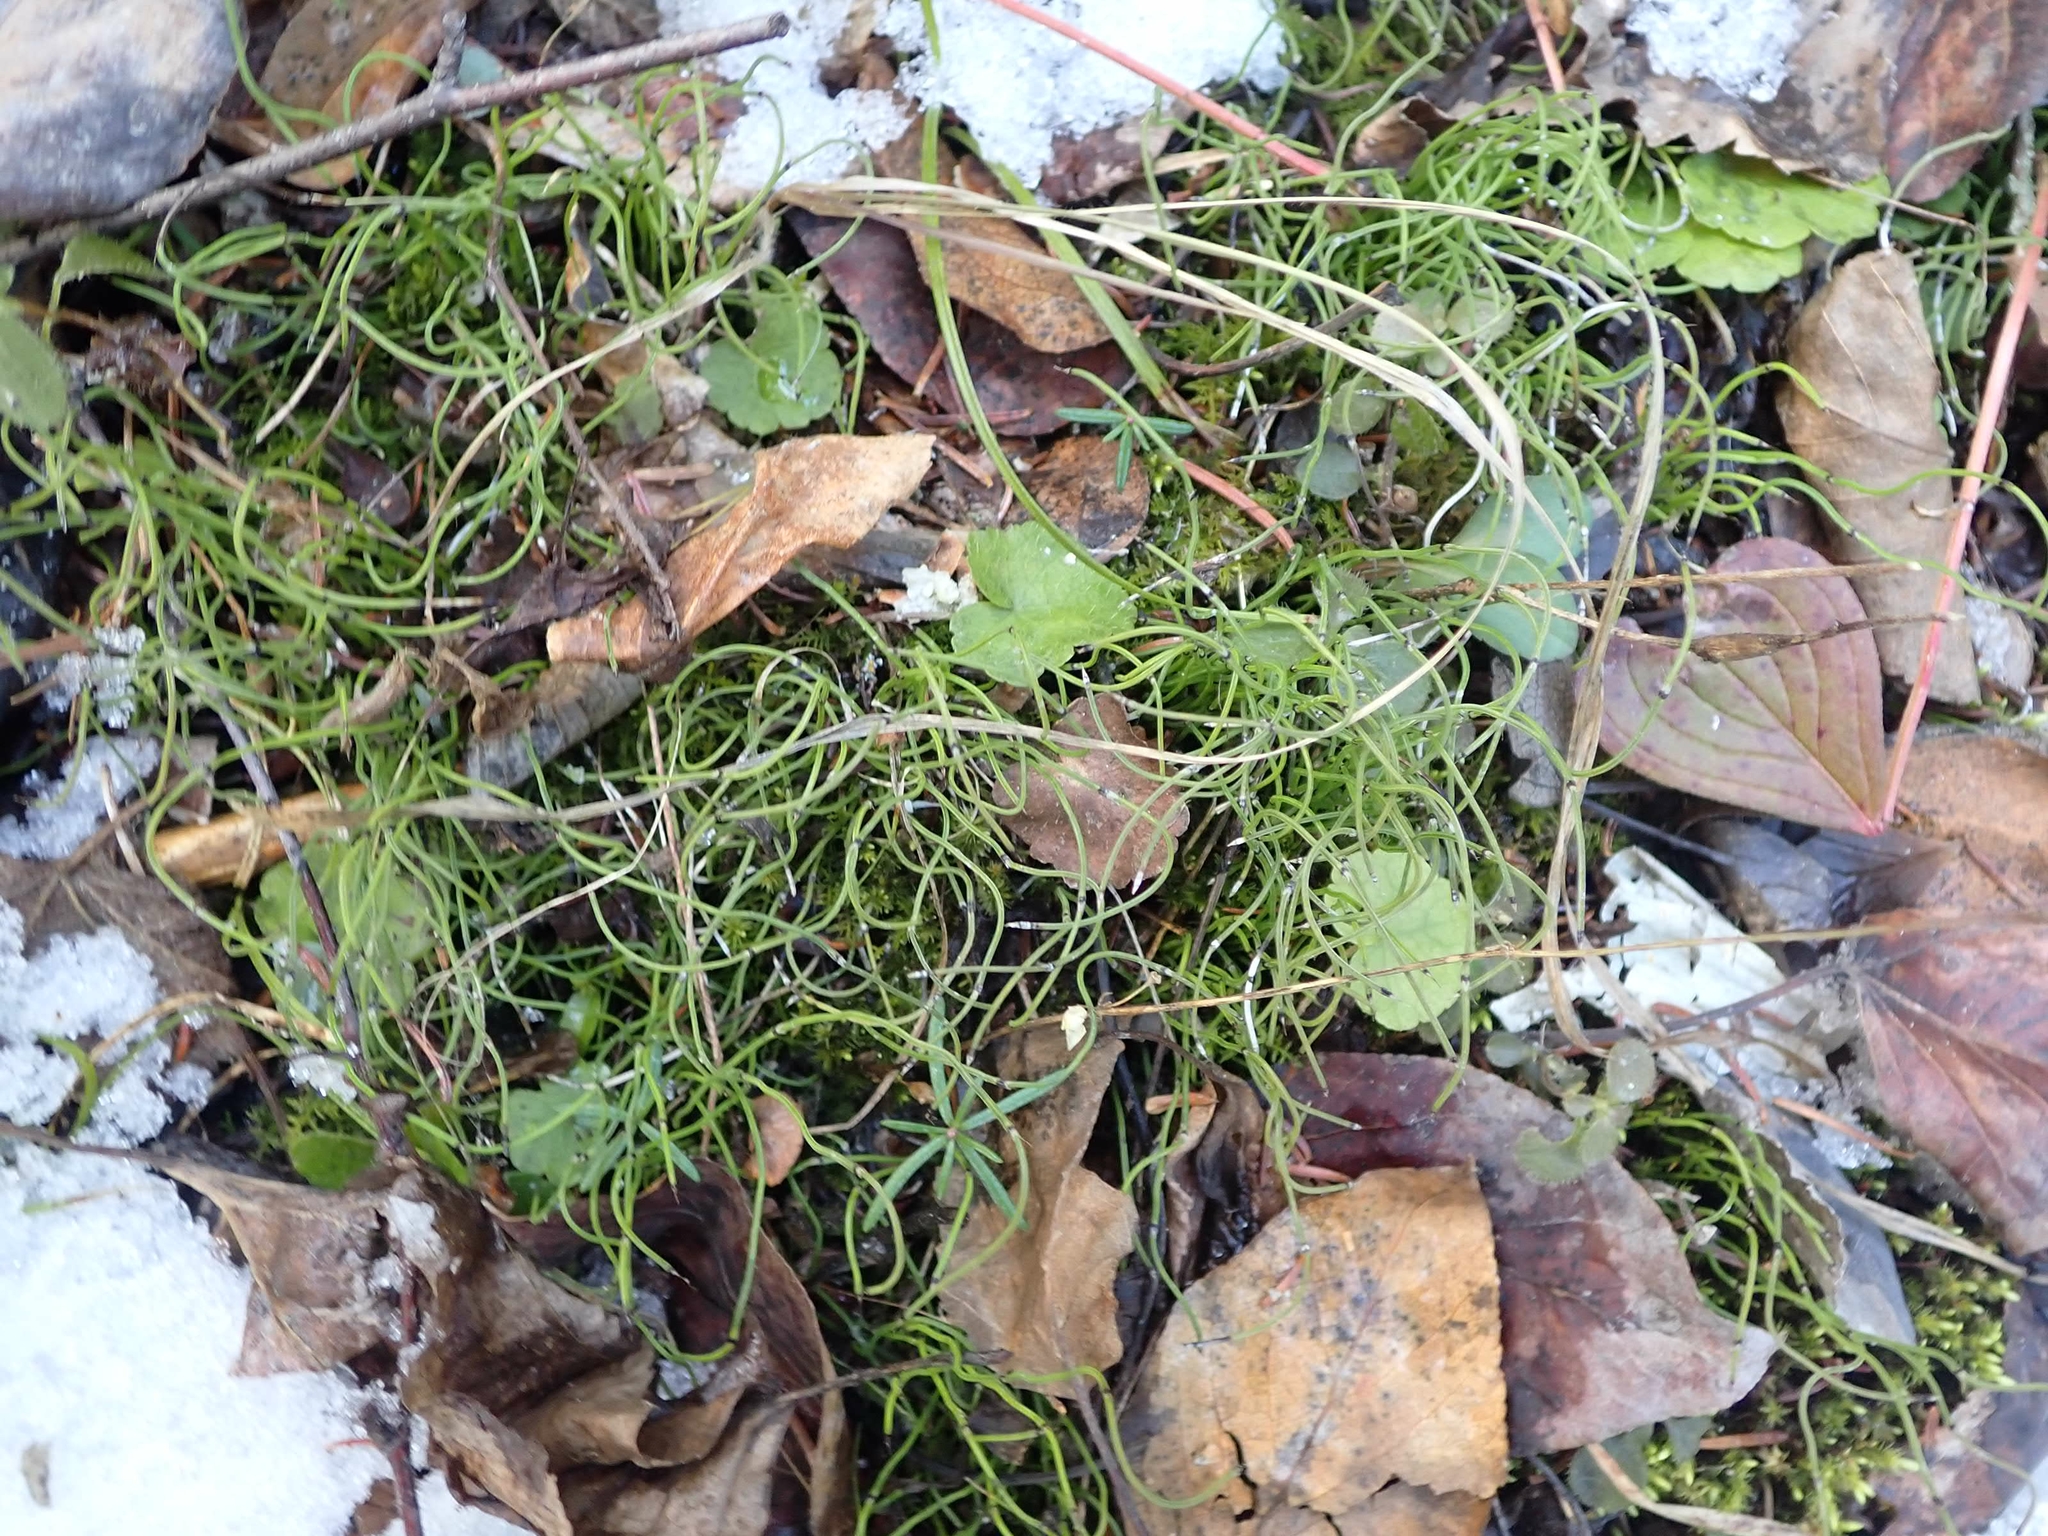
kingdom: Plantae
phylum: Tracheophyta
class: Polypodiopsida
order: Equisetales
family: Equisetaceae
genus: Equisetum
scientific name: Equisetum scirpoides
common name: Delicate horsetail
